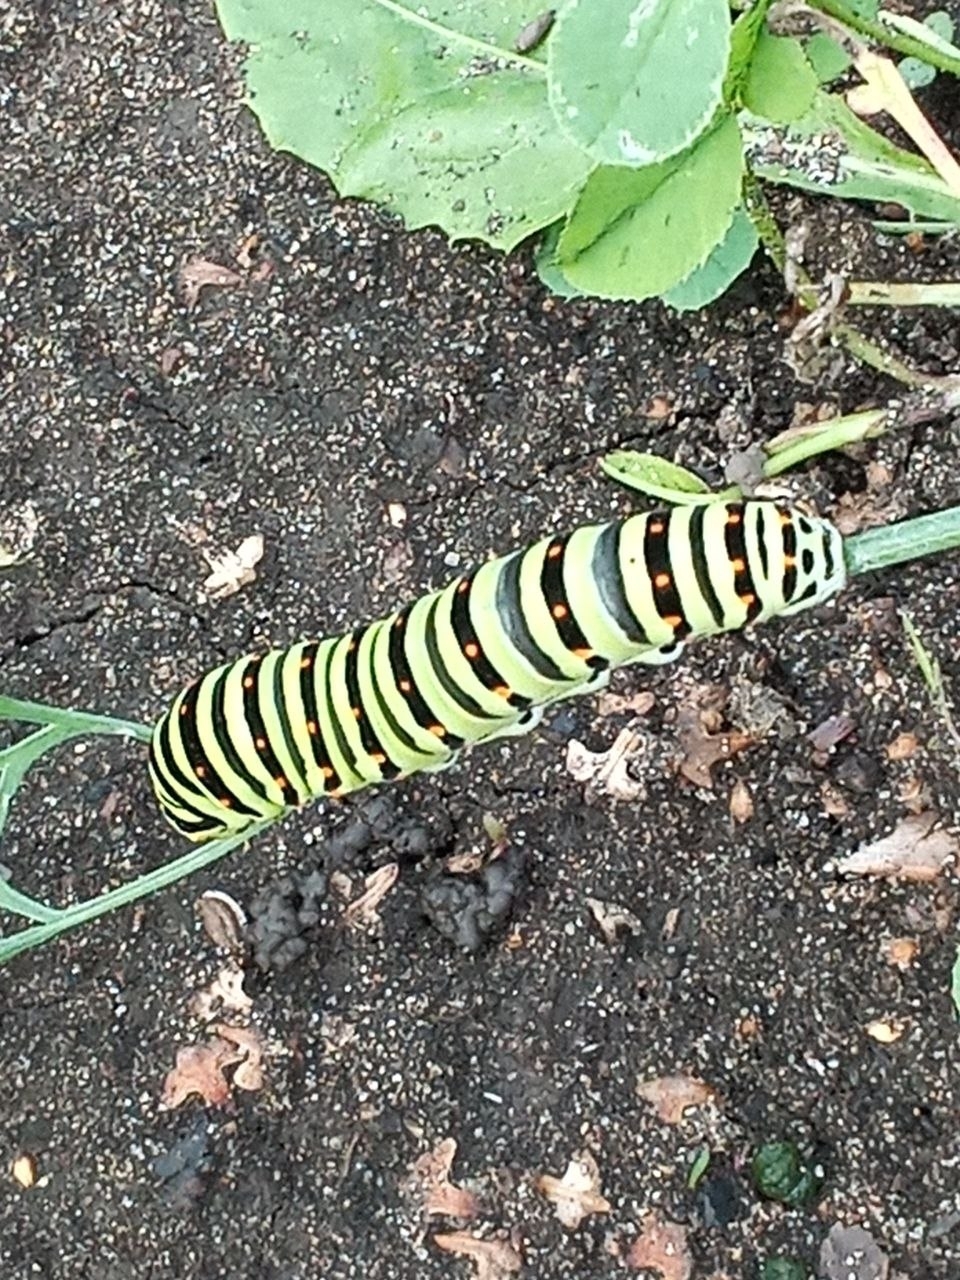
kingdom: Animalia
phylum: Arthropoda
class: Insecta
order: Lepidoptera
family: Papilionidae
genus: Papilio
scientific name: Papilio machaon
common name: Swallowtail
